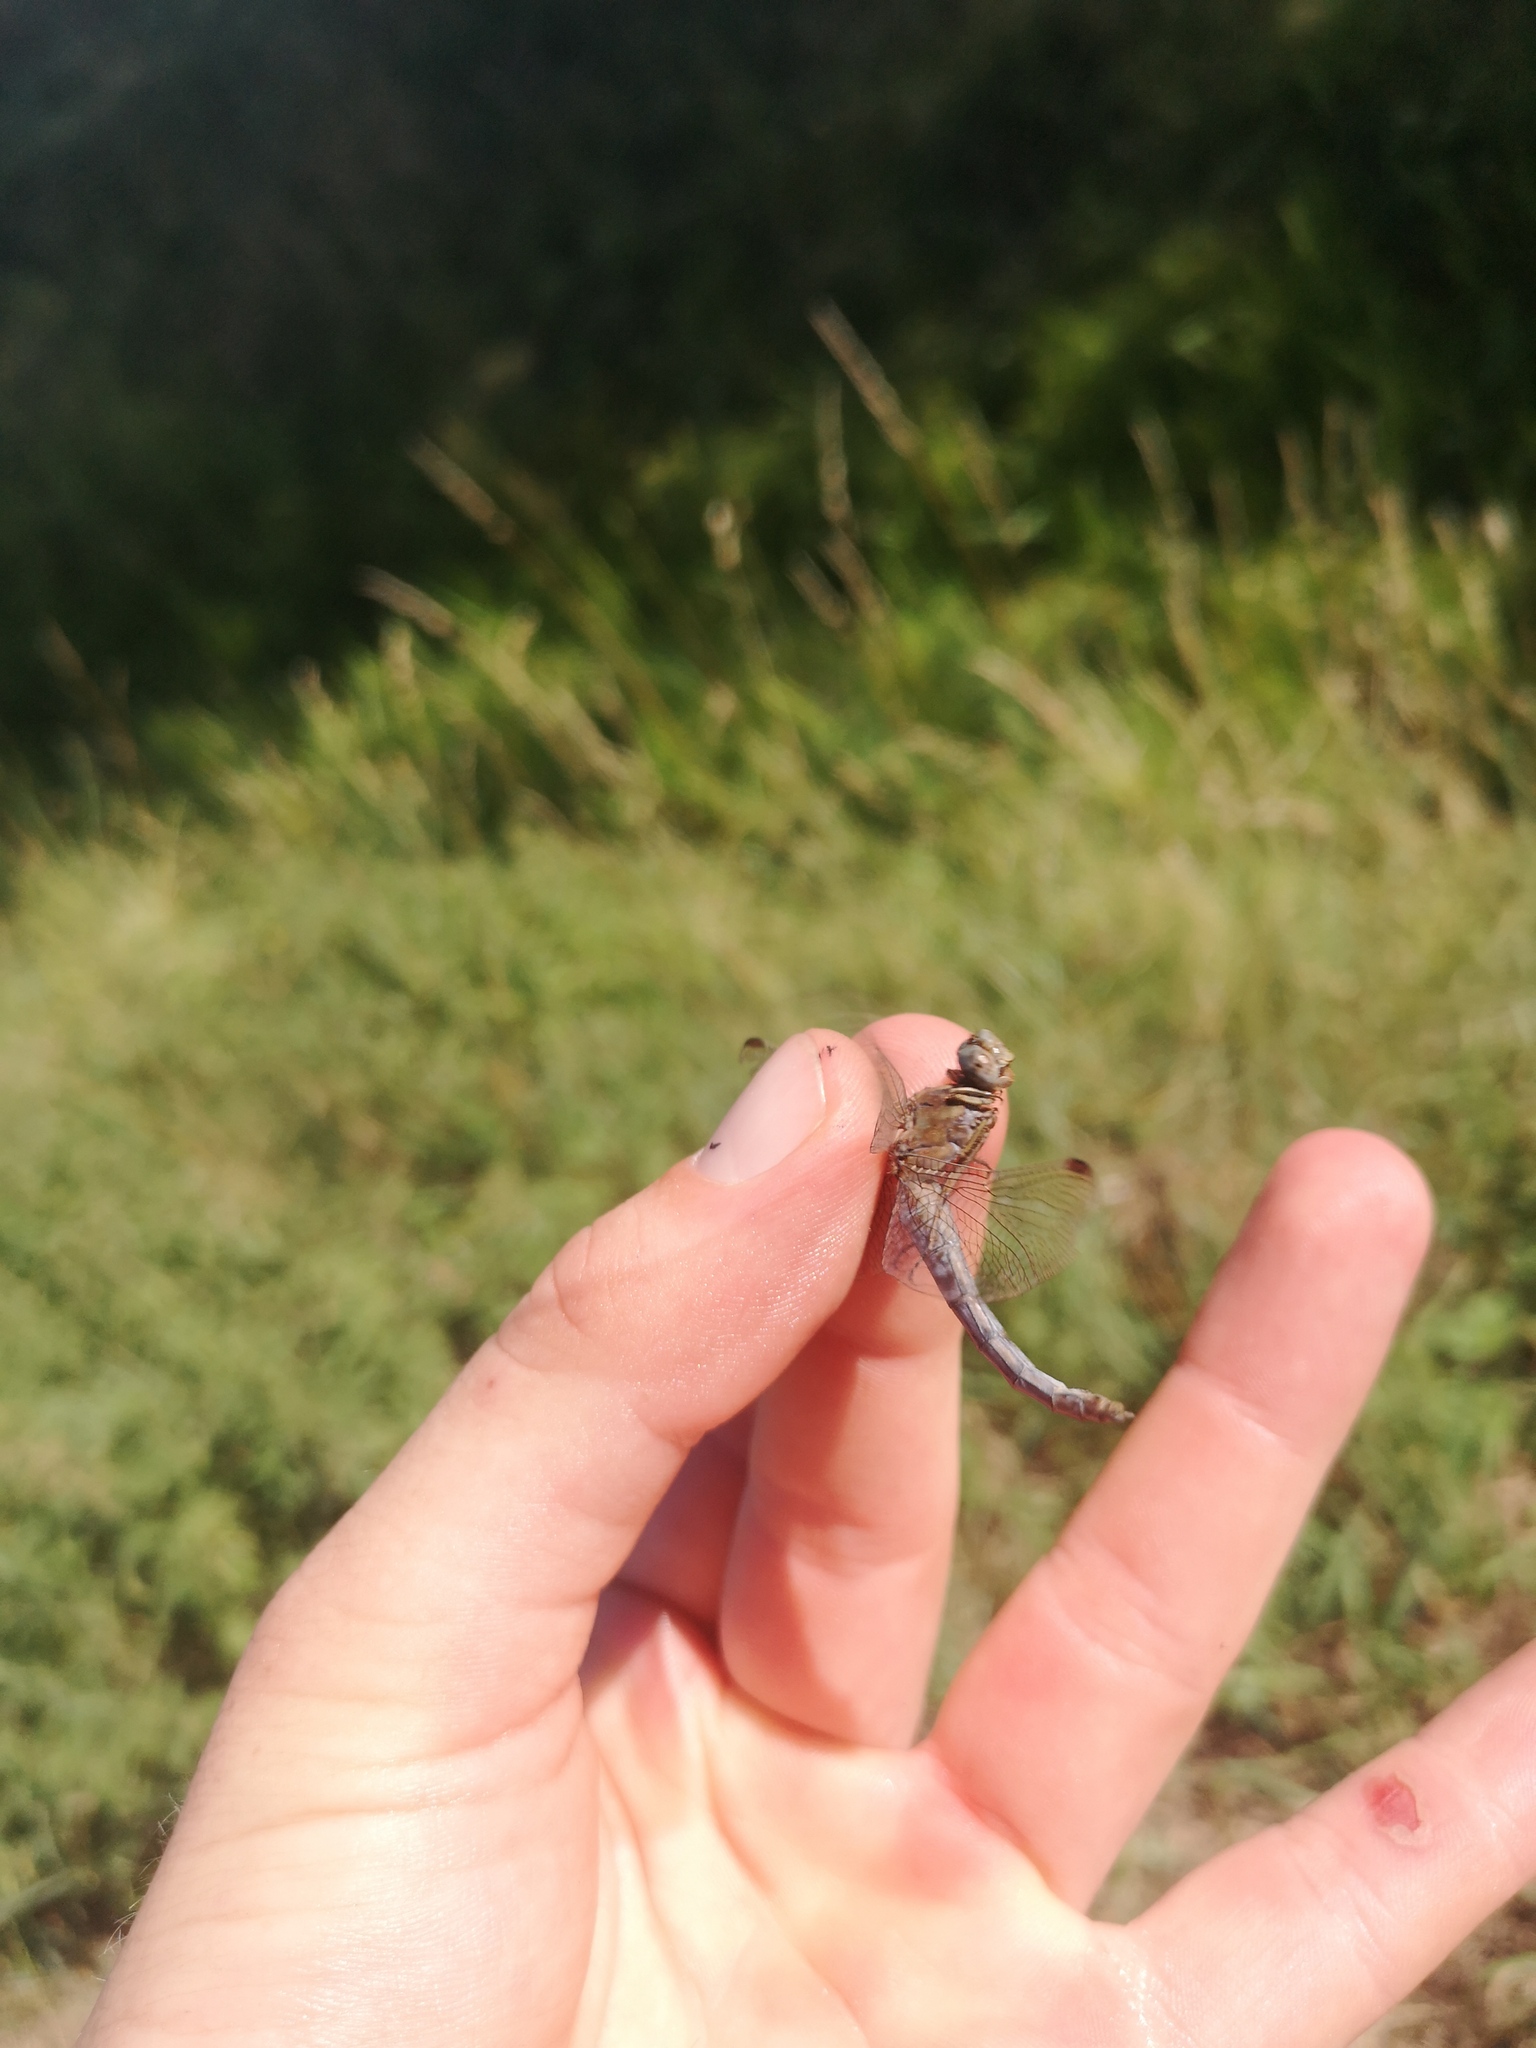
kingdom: Animalia
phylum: Arthropoda
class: Insecta
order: Odonata
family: Libellulidae
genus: Orthetrum
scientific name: Orthetrum coerulescens
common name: Keeled skimmer
